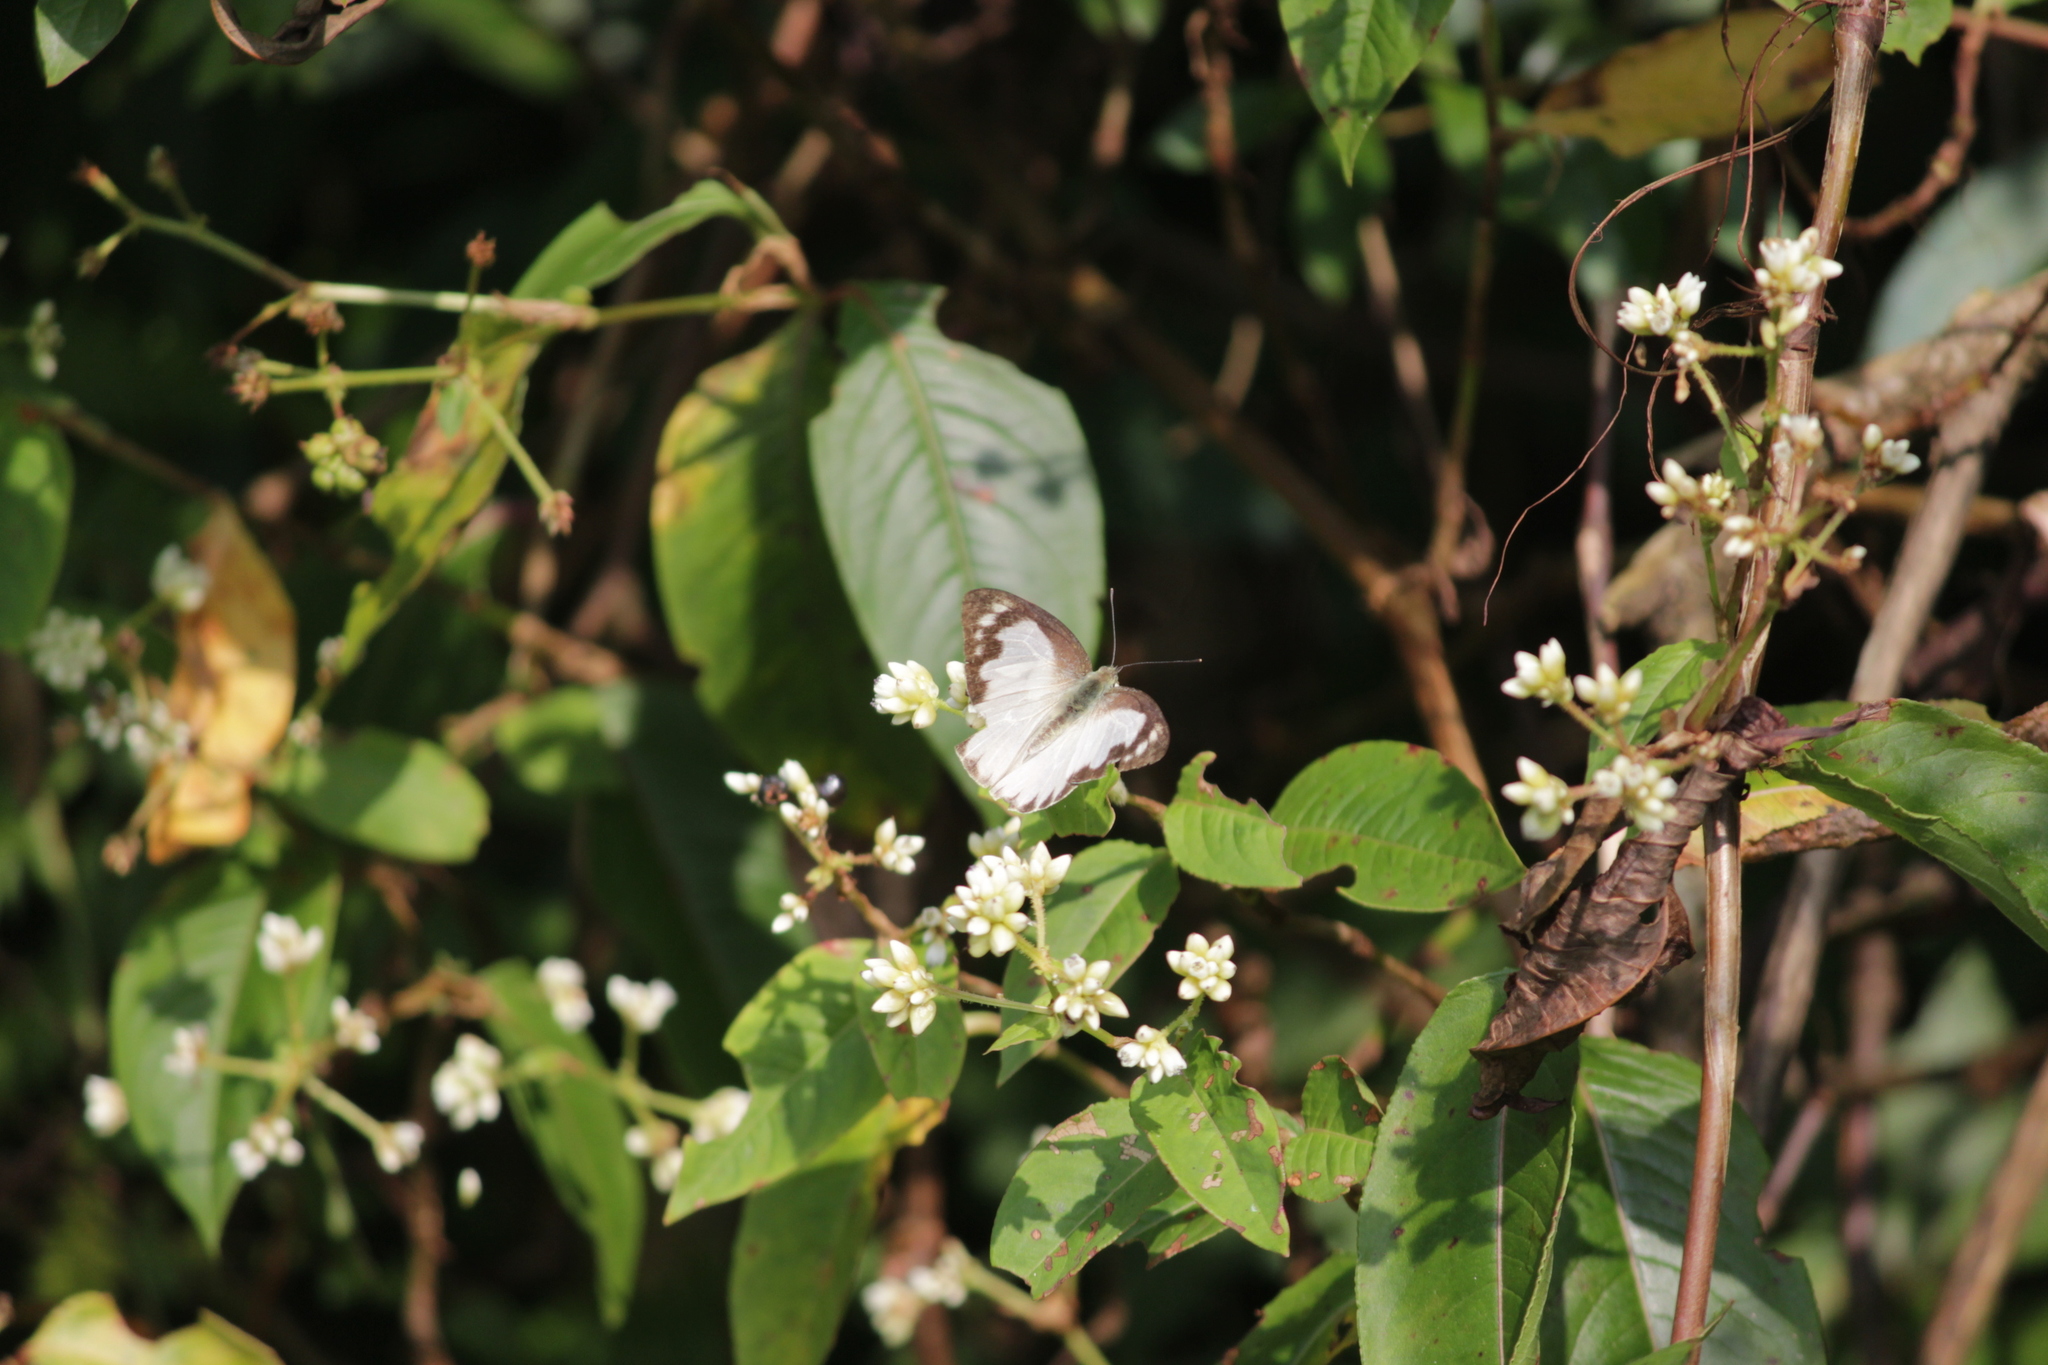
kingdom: Animalia
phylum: Arthropoda
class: Insecta
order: Lepidoptera
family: Pieridae
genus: Appias
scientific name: Appias albina
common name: Common albatross
